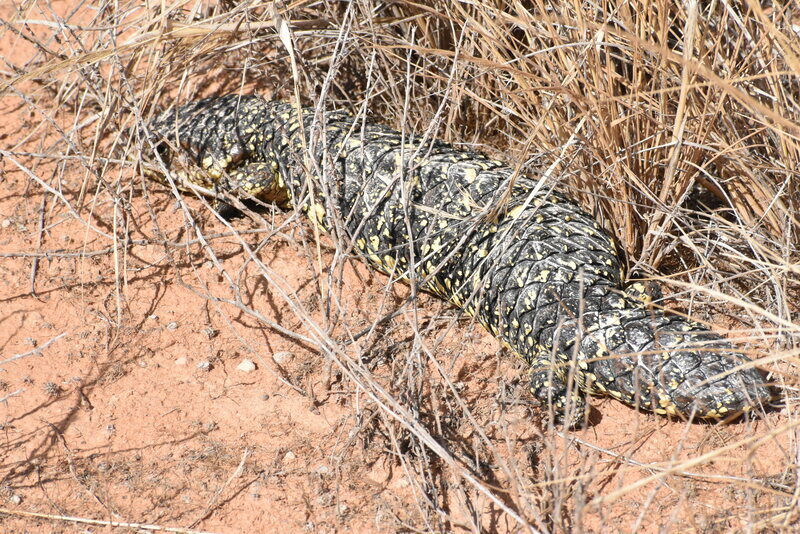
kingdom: Animalia
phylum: Chordata
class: Squamata
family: Scincidae
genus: Tiliqua
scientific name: Tiliqua rugosa
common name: Pinecone lizard
